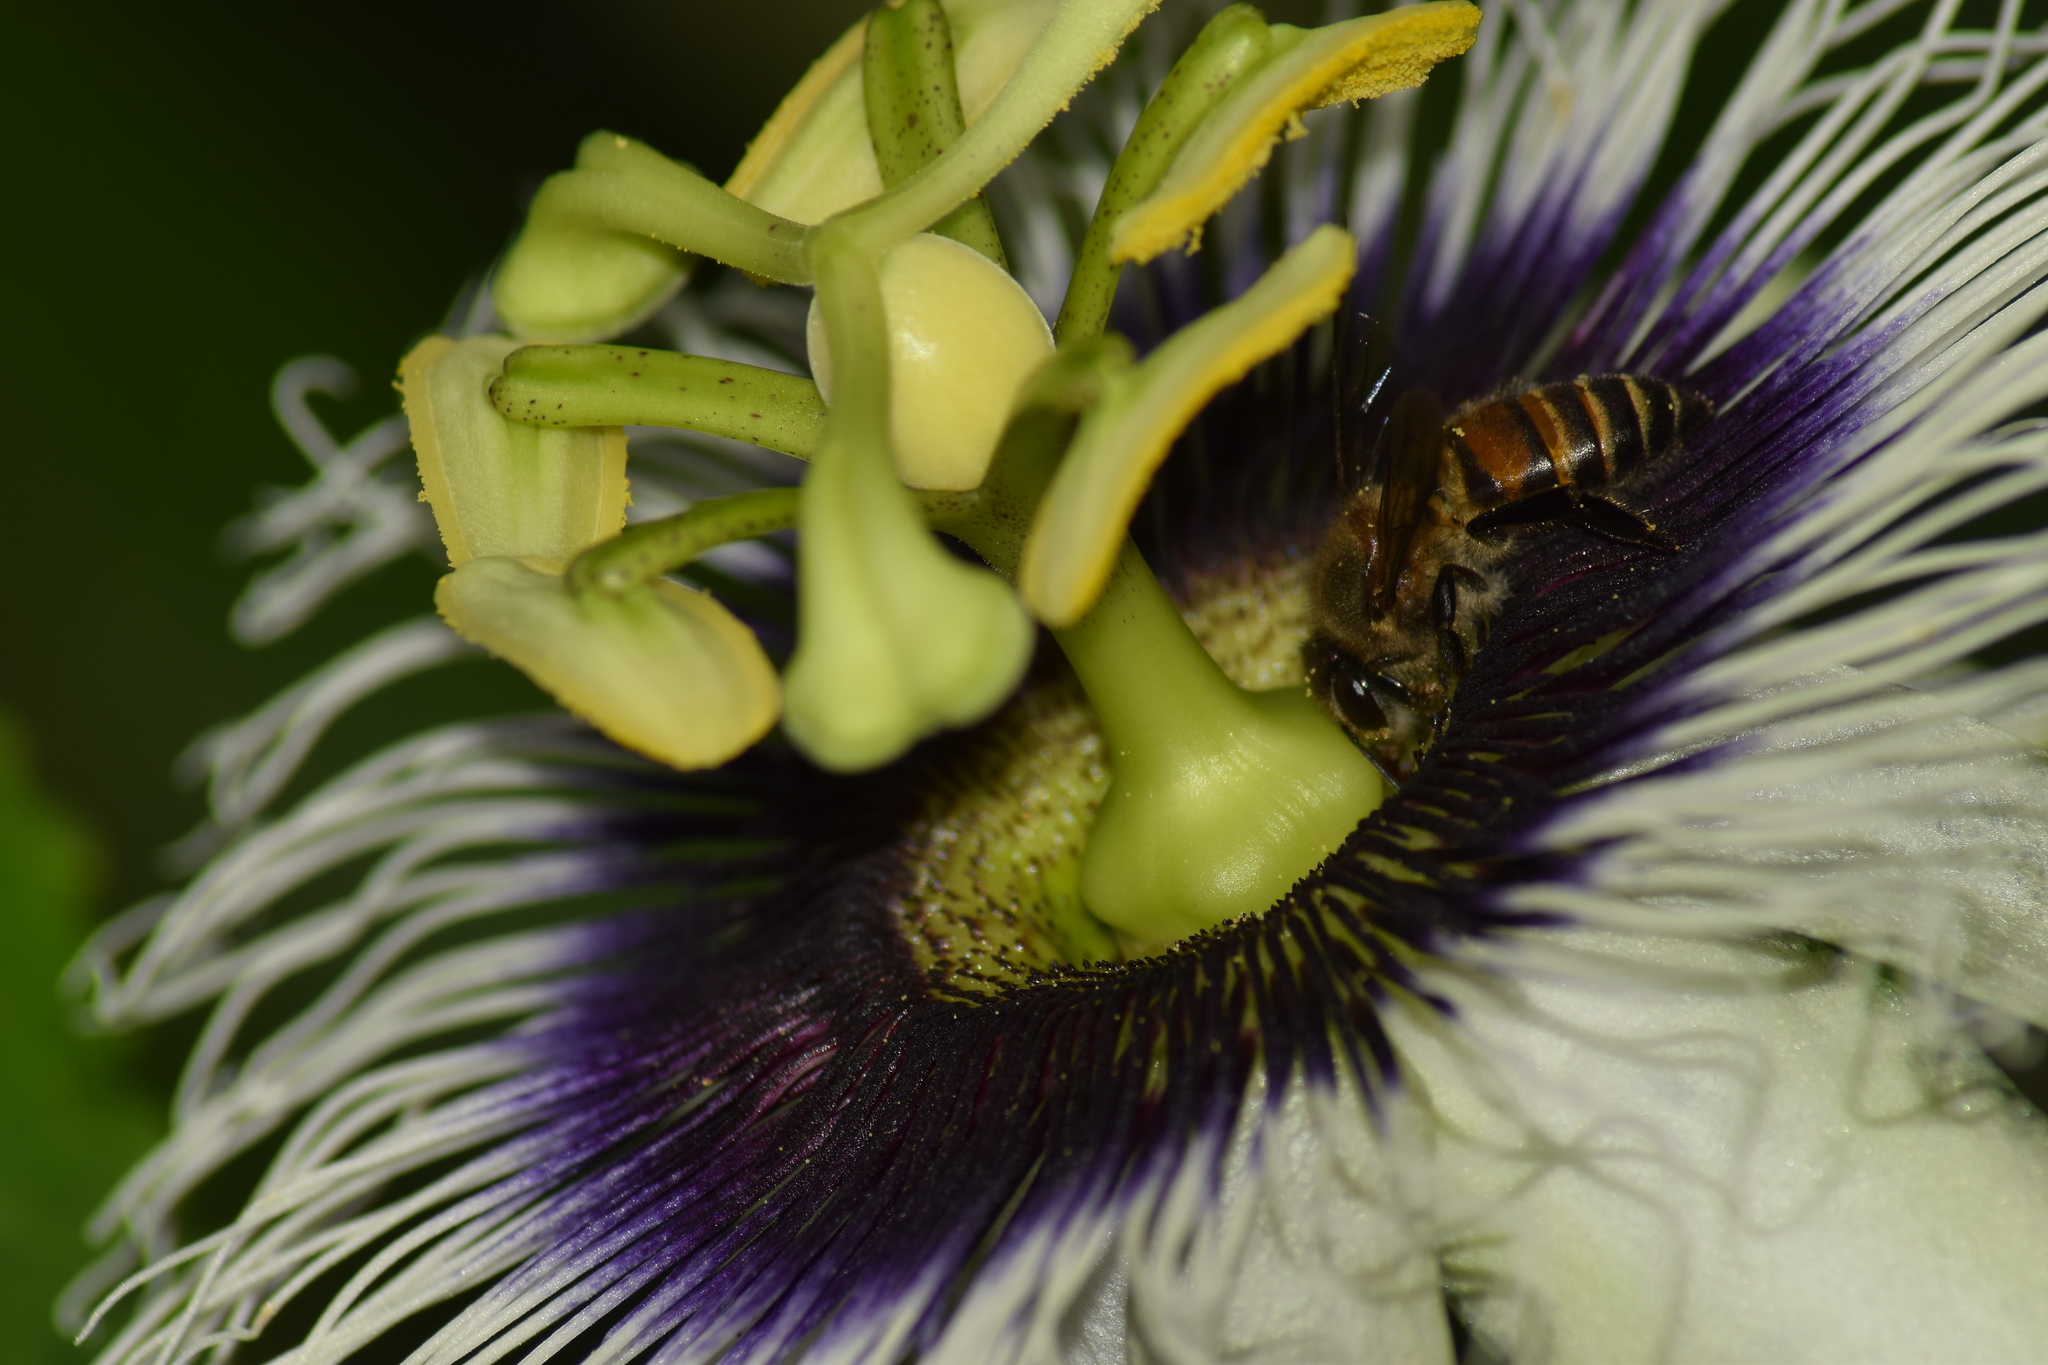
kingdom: Animalia
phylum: Arthropoda
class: Insecta
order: Hymenoptera
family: Apidae
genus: Apis
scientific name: Apis cerana
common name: Honey bee
